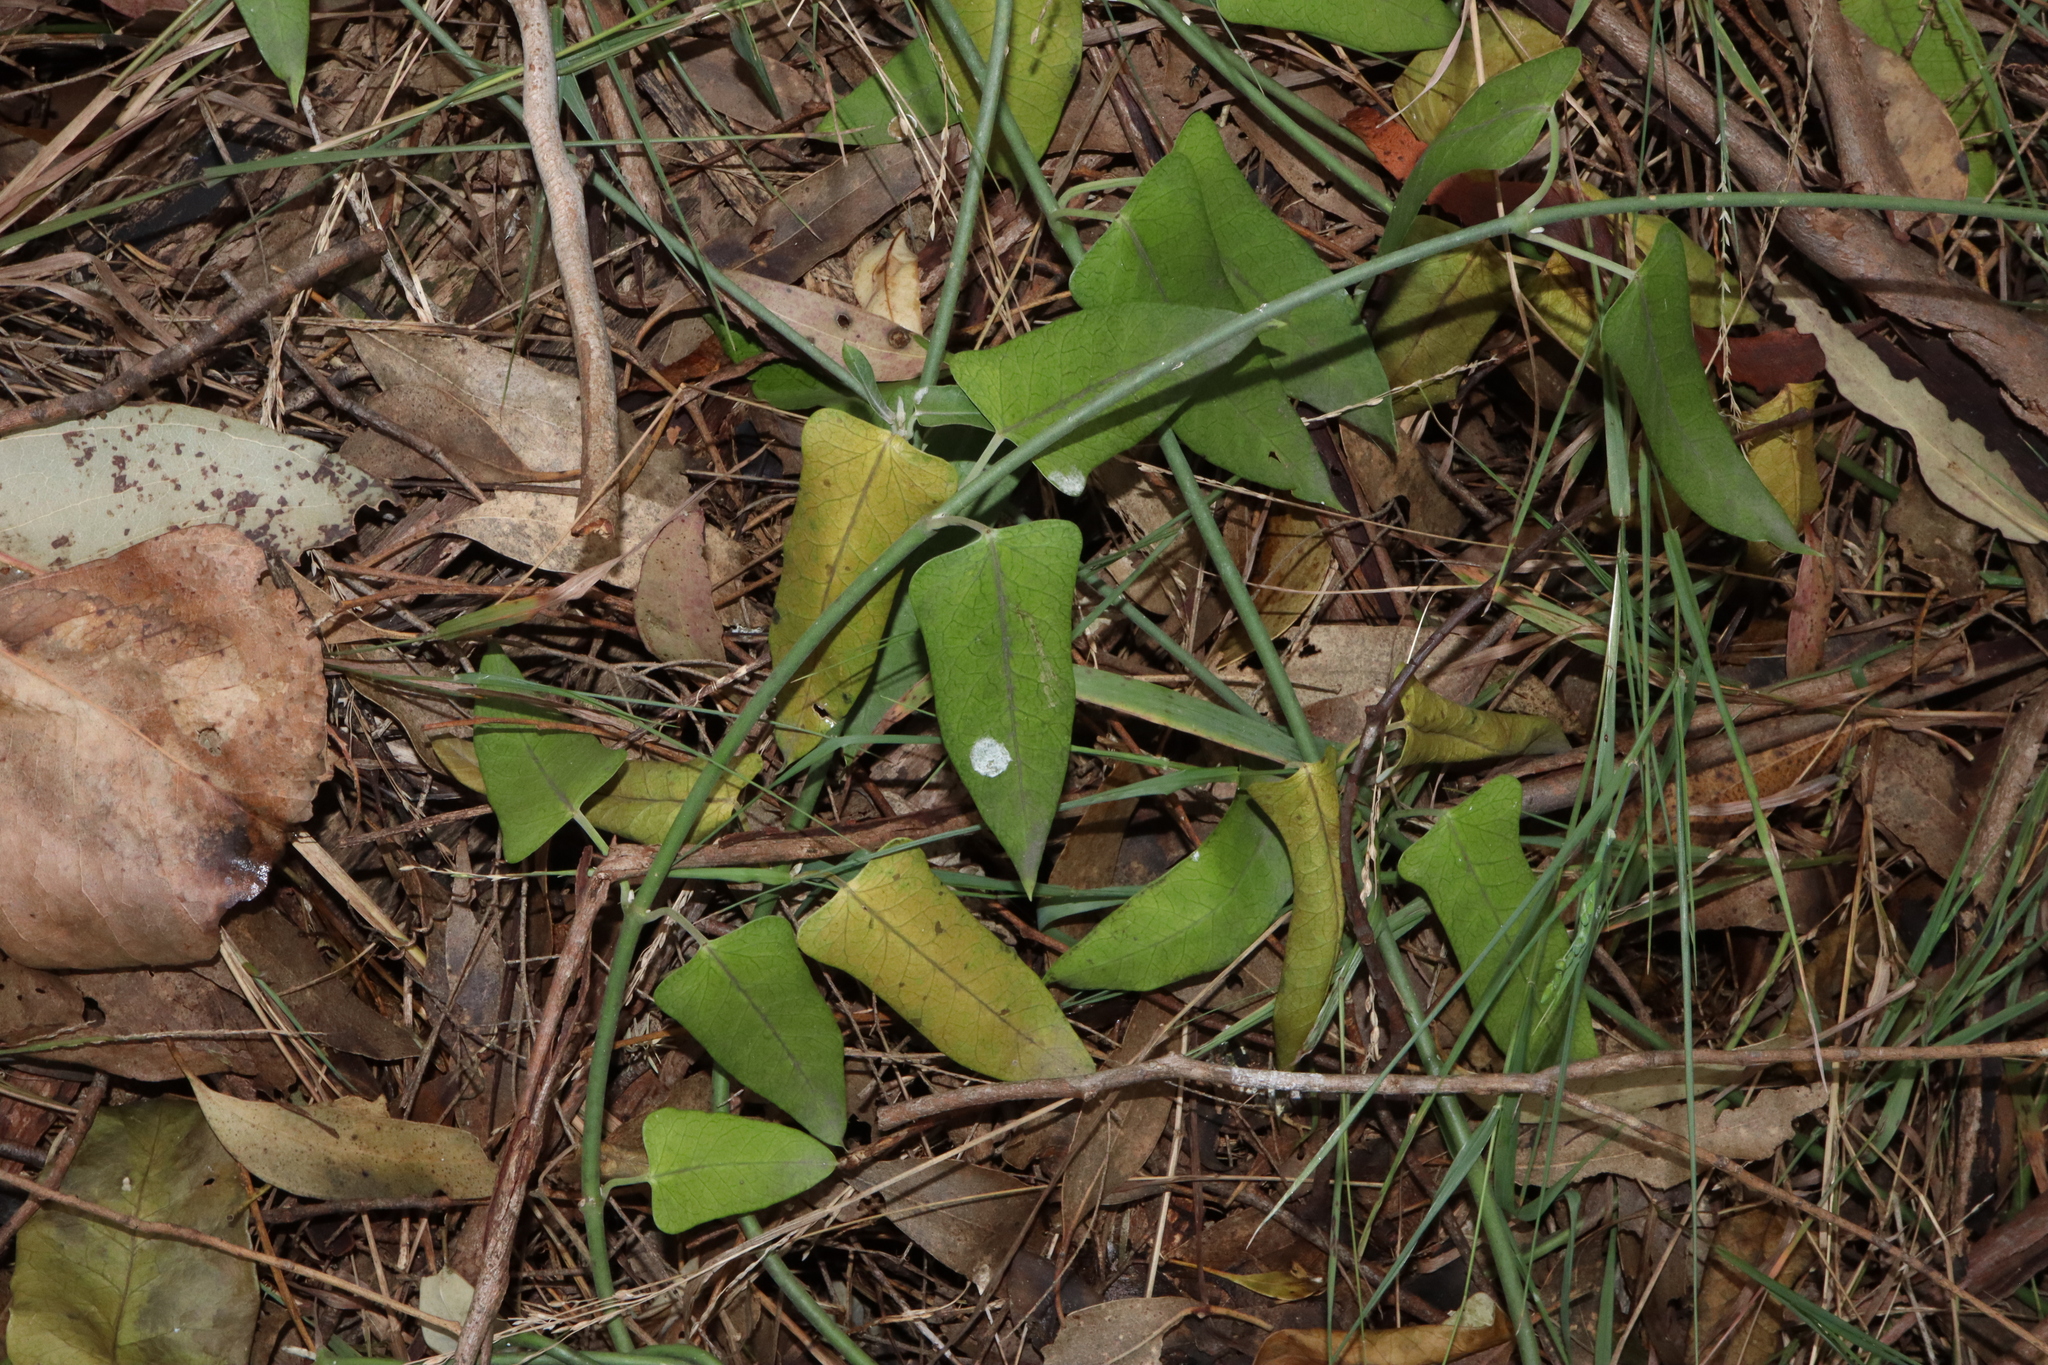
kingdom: Plantae
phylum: Tracheophyta
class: Magnoliopsida
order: Gentianales
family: Apocynaceae
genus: Araujia
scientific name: Araujia sericifera
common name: White bladderflower
